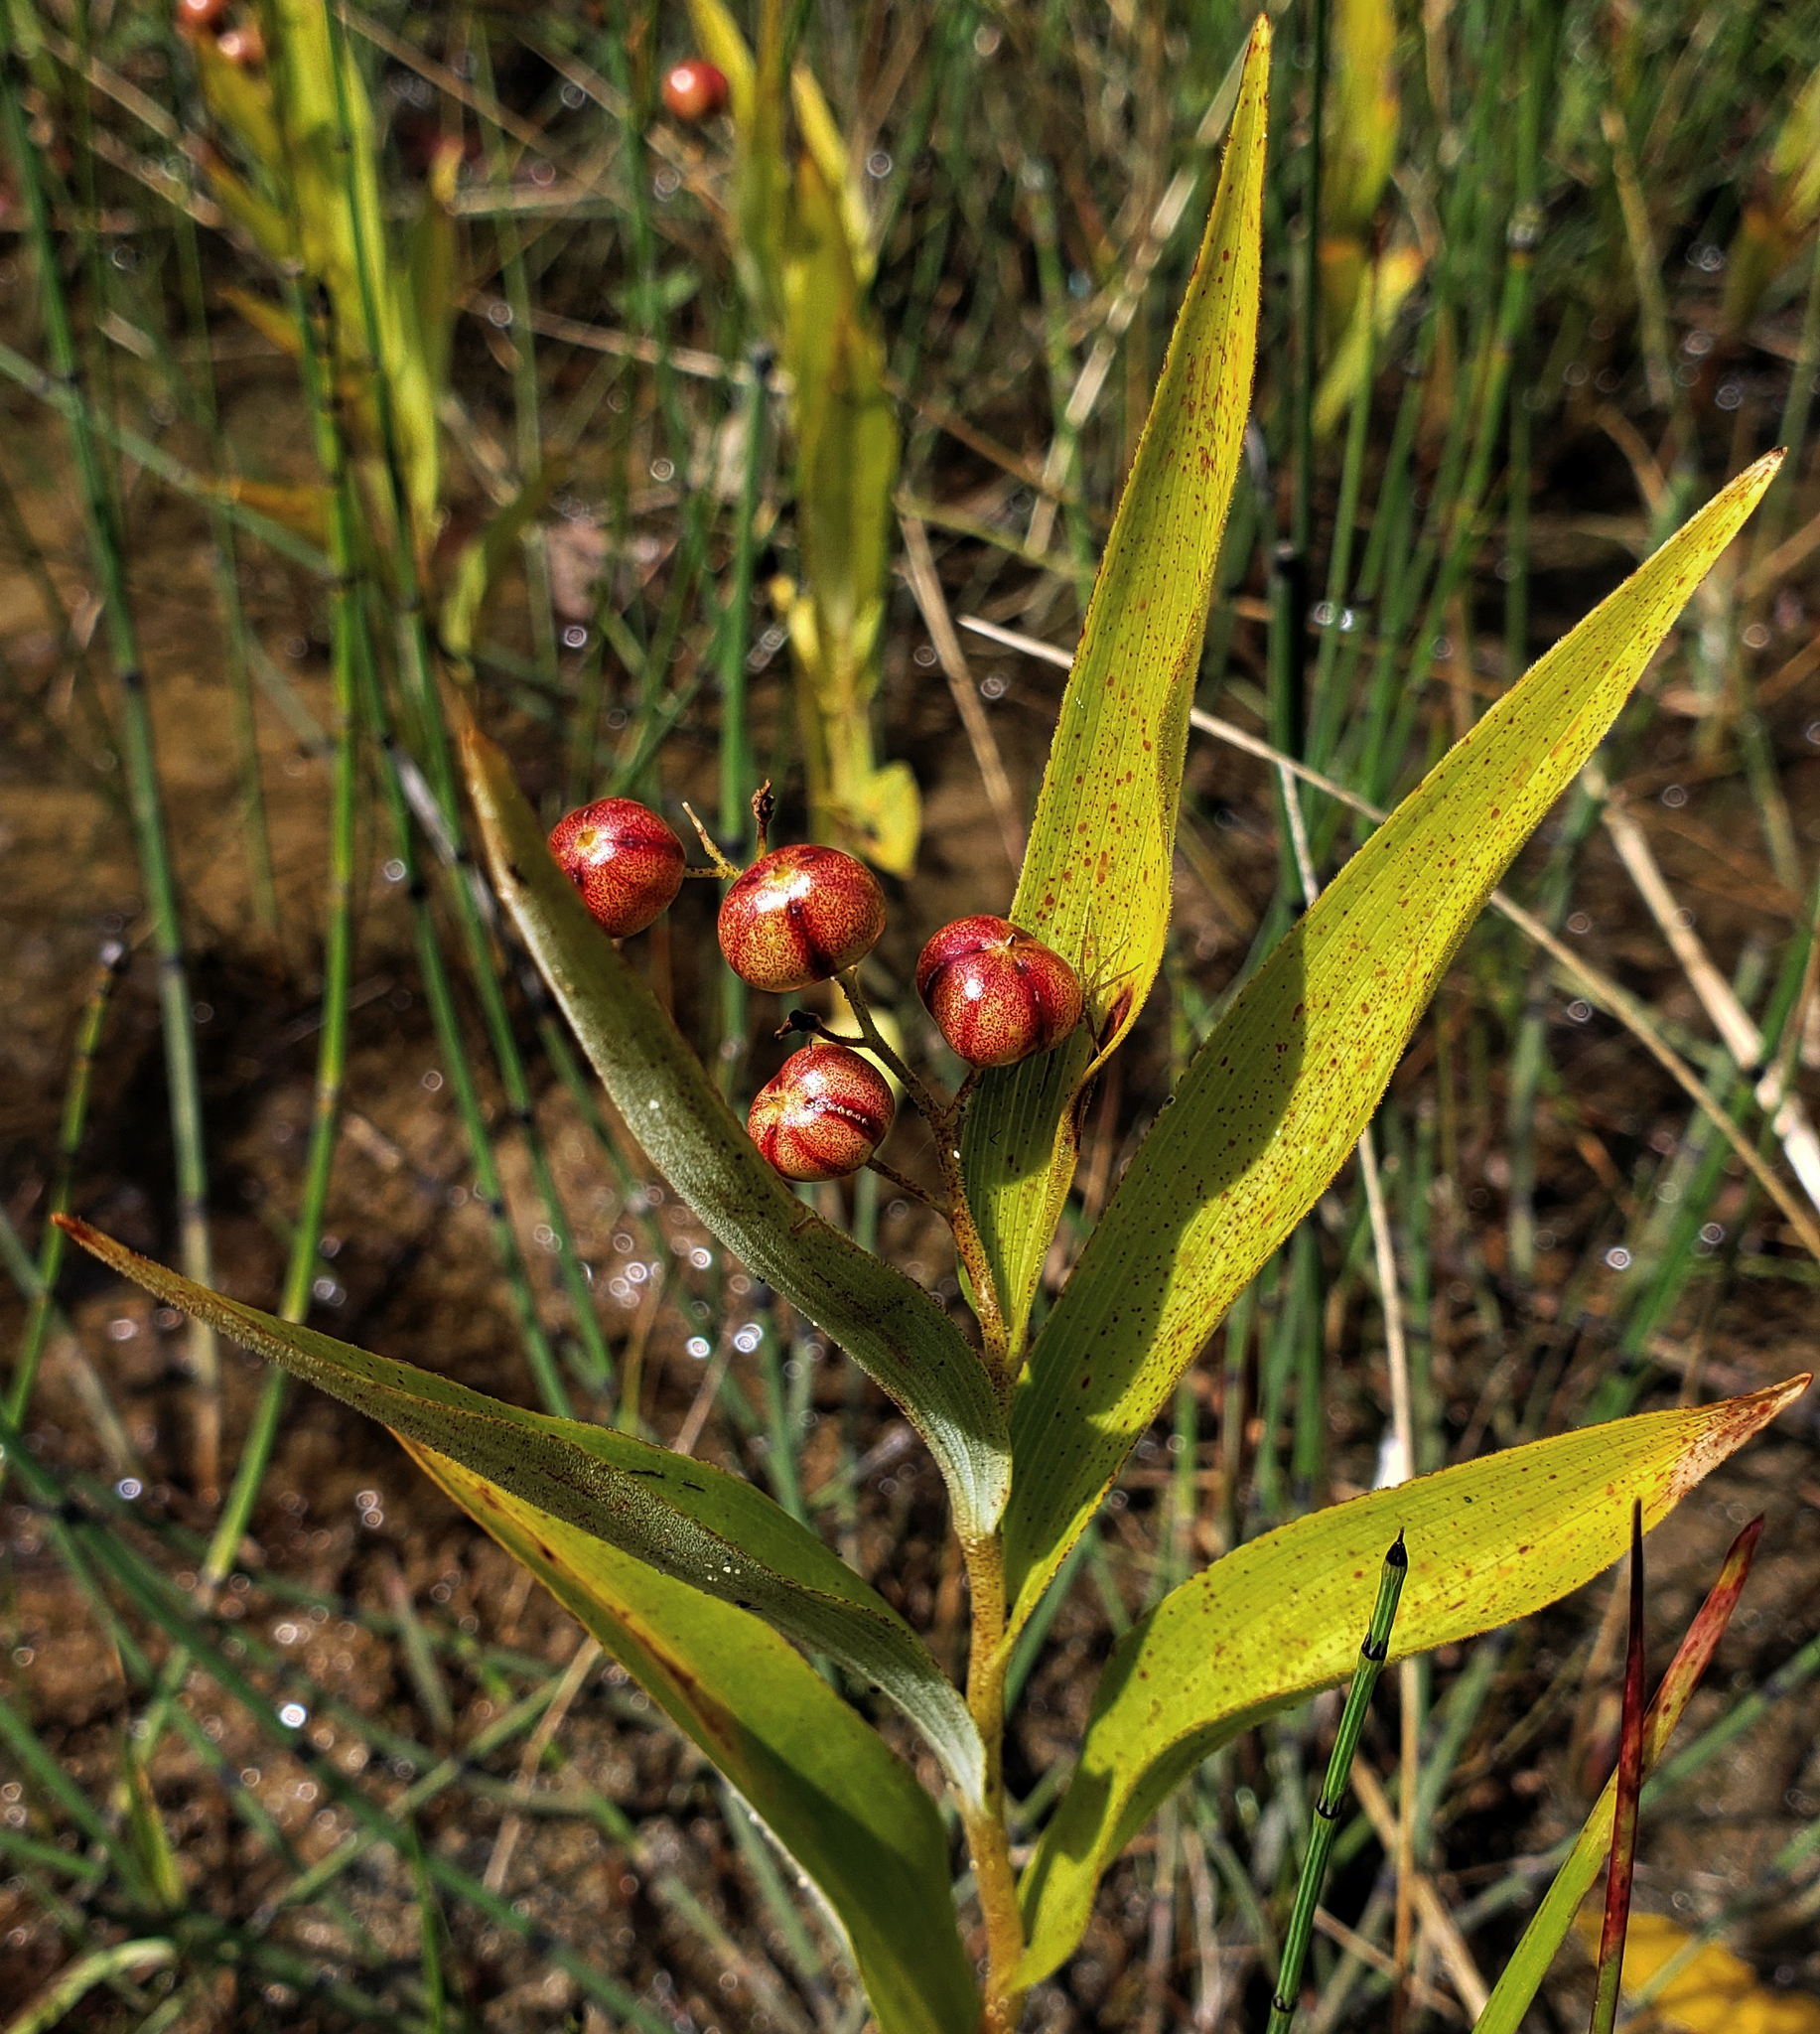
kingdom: Plantae
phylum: Tracheophyta
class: Liliopsida
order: Asparagales
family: Asparagaceae
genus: Maianthemum
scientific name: Maianthemum stellatum
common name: Little false solomon's seal
